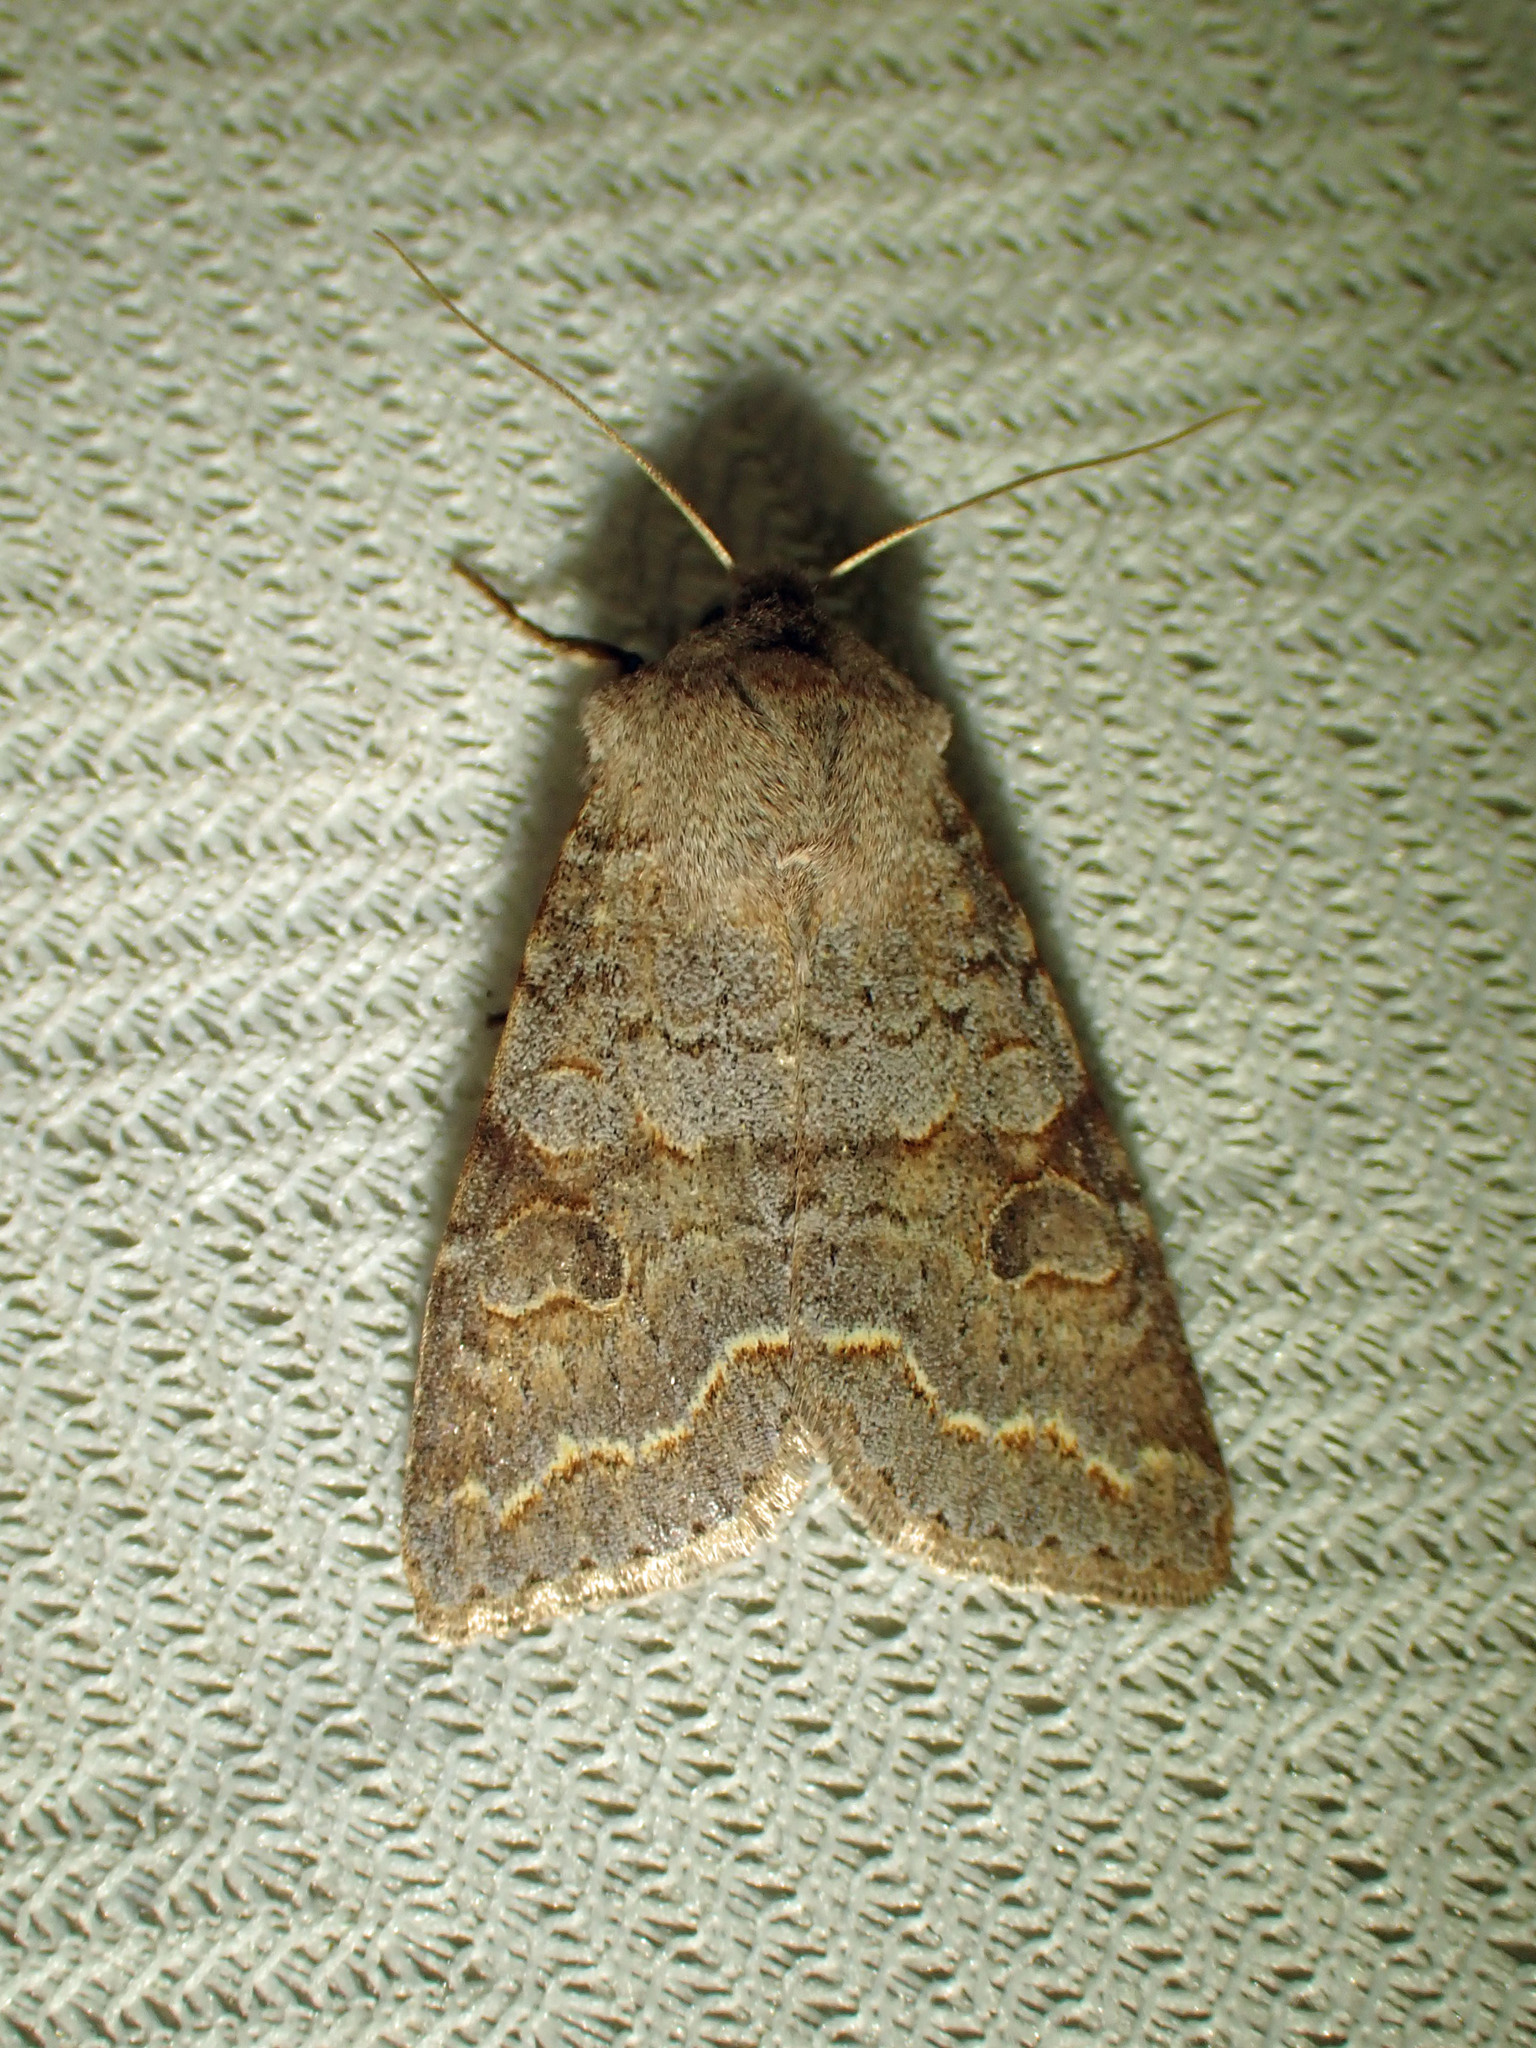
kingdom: Animalia
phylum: Arthropoda
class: Insecta
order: Lepidoptera
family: Noctuidae
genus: Orthosia
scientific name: Orthosia revicta
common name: Rusty whitesided caterpillar
